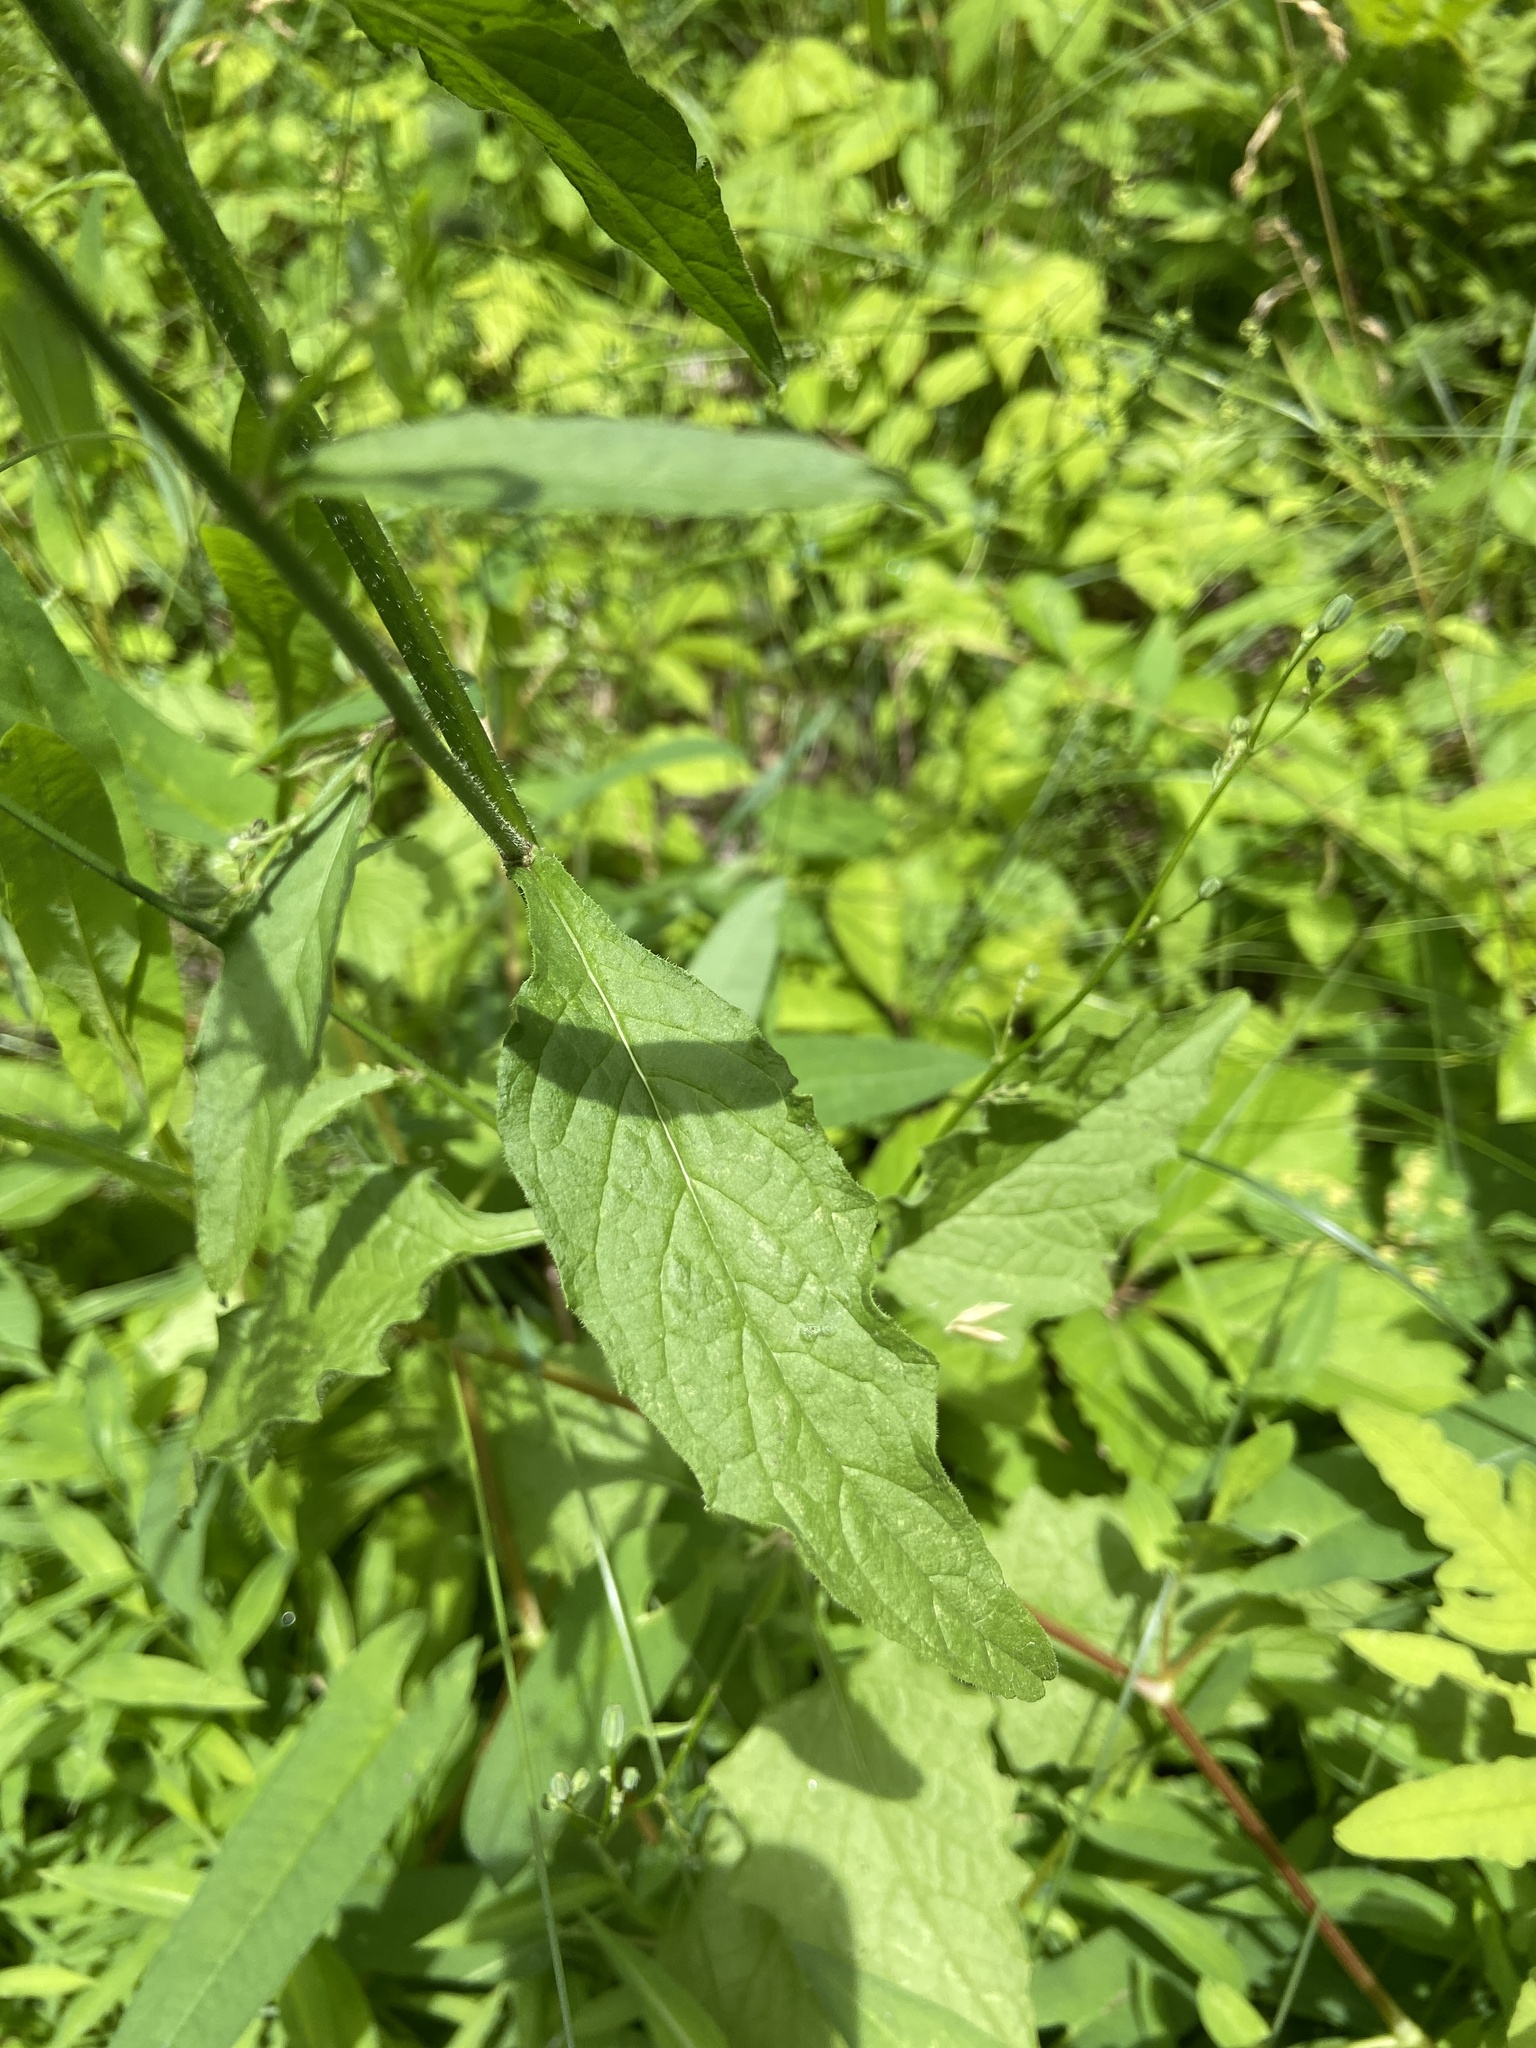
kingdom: Plantae
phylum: Tracheophyta
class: Magnoliopsida
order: Asterales
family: Asteraceae
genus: Lapsana
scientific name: Lapsana communis
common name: Nipplewort
